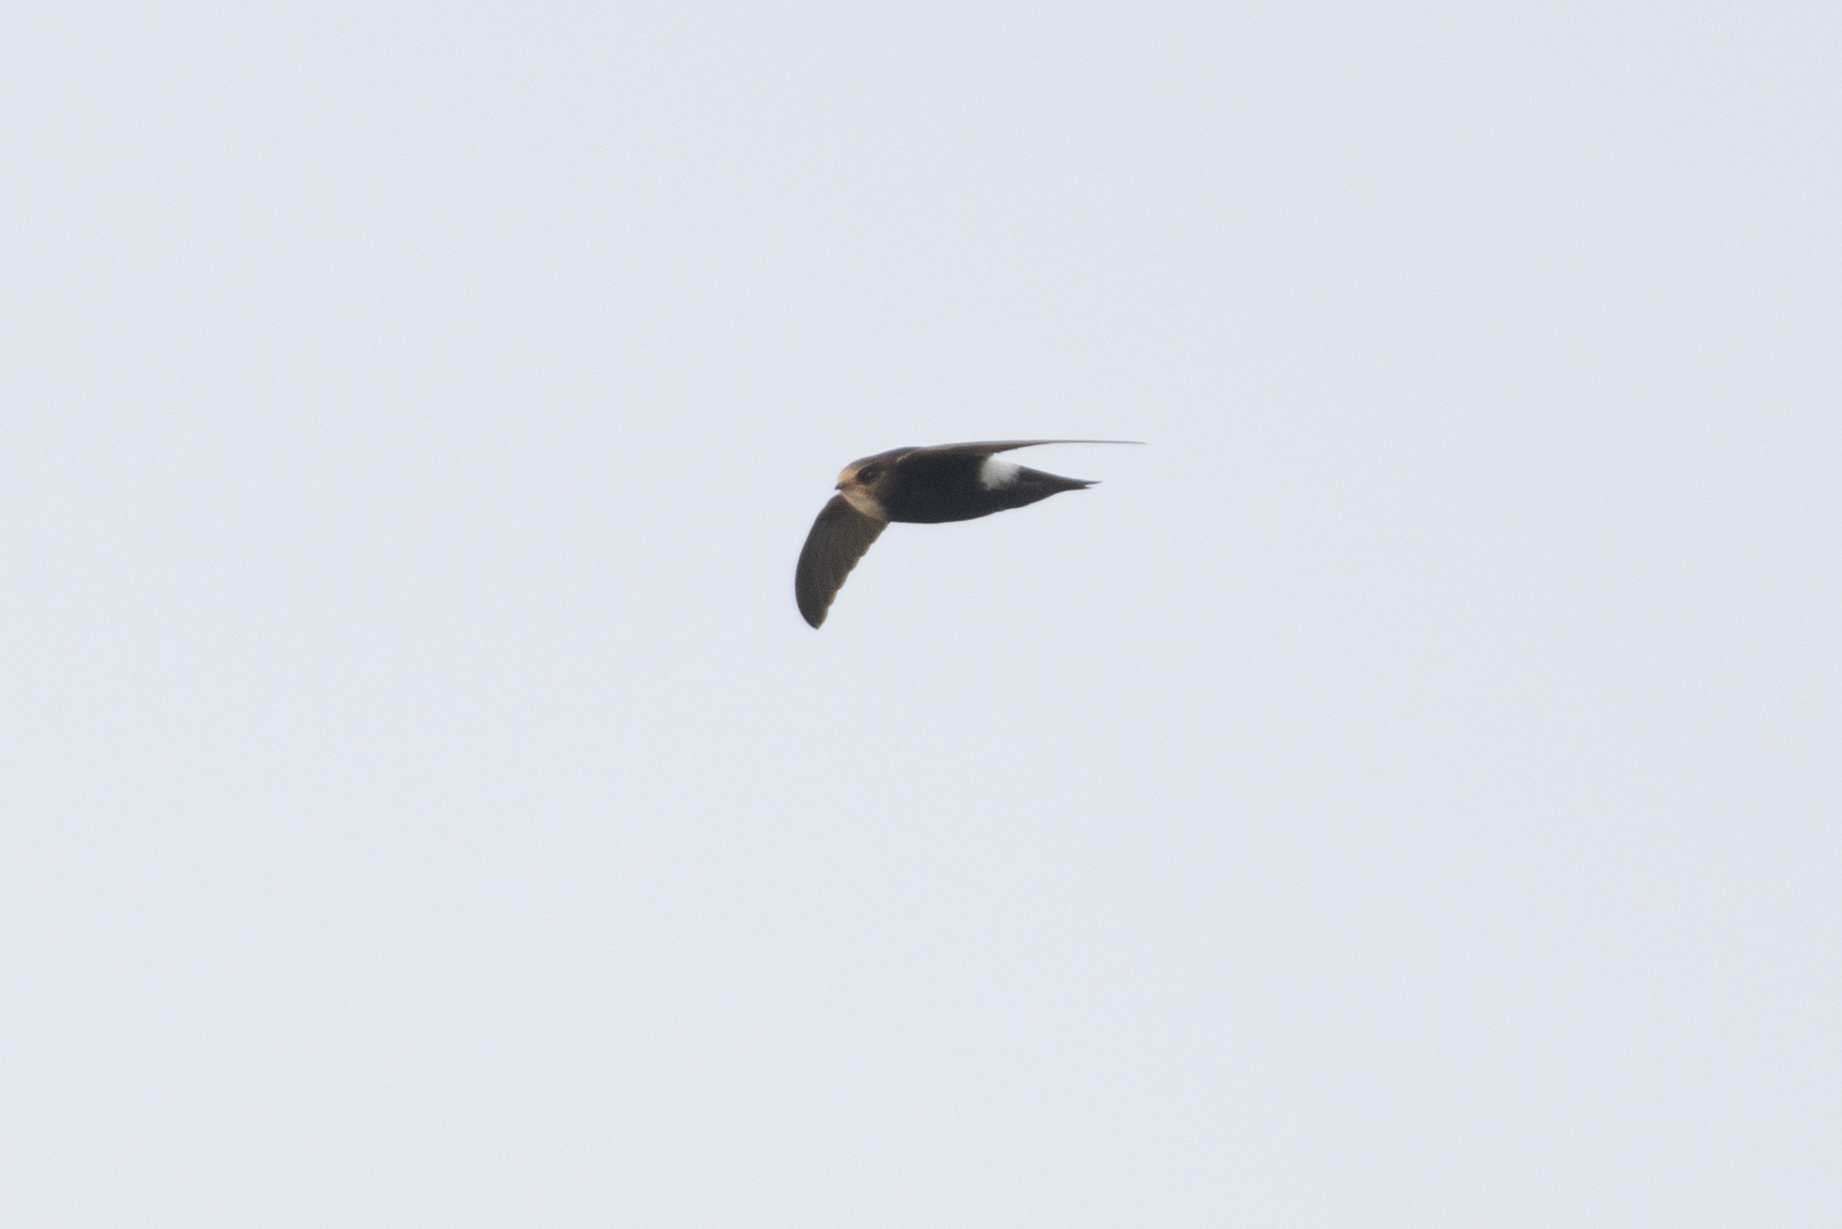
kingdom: Animalia
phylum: Chordata
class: Aves
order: Apodiformes
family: Apodidae
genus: Apus
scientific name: Apus nipalensis
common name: House swift
